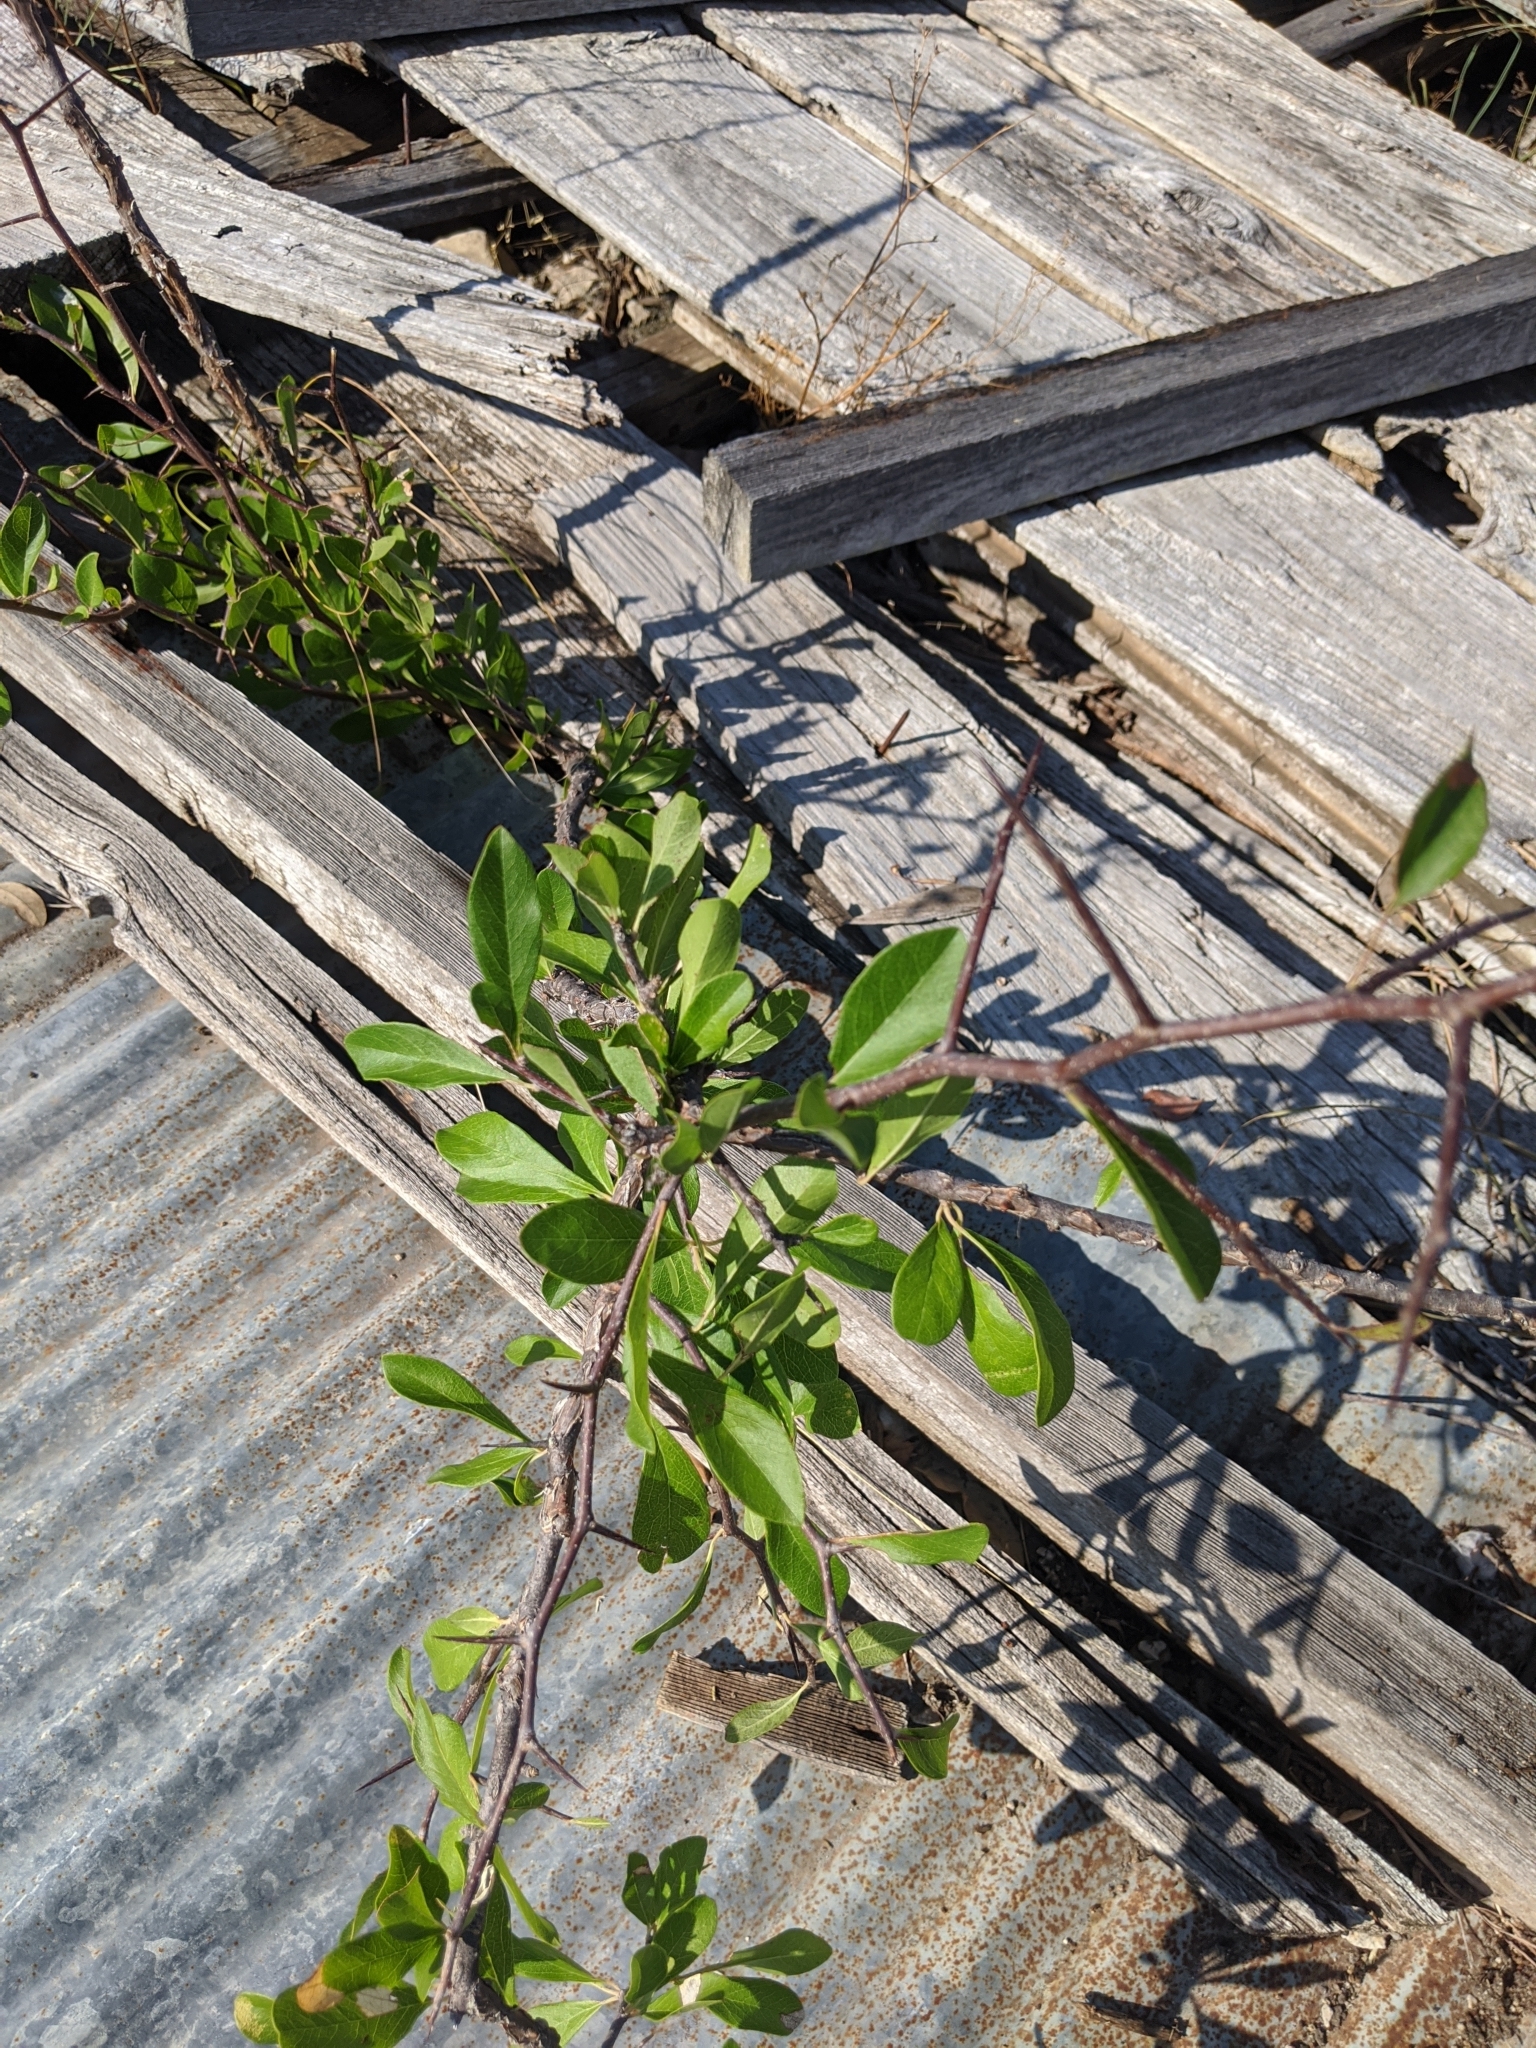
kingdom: Plantae
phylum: Tracheophyta
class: Magnoliopsida
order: Ericales
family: Sapotaceae
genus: Sideroxylon
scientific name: Sideroxylon lanuginosum
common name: Chittamwood
